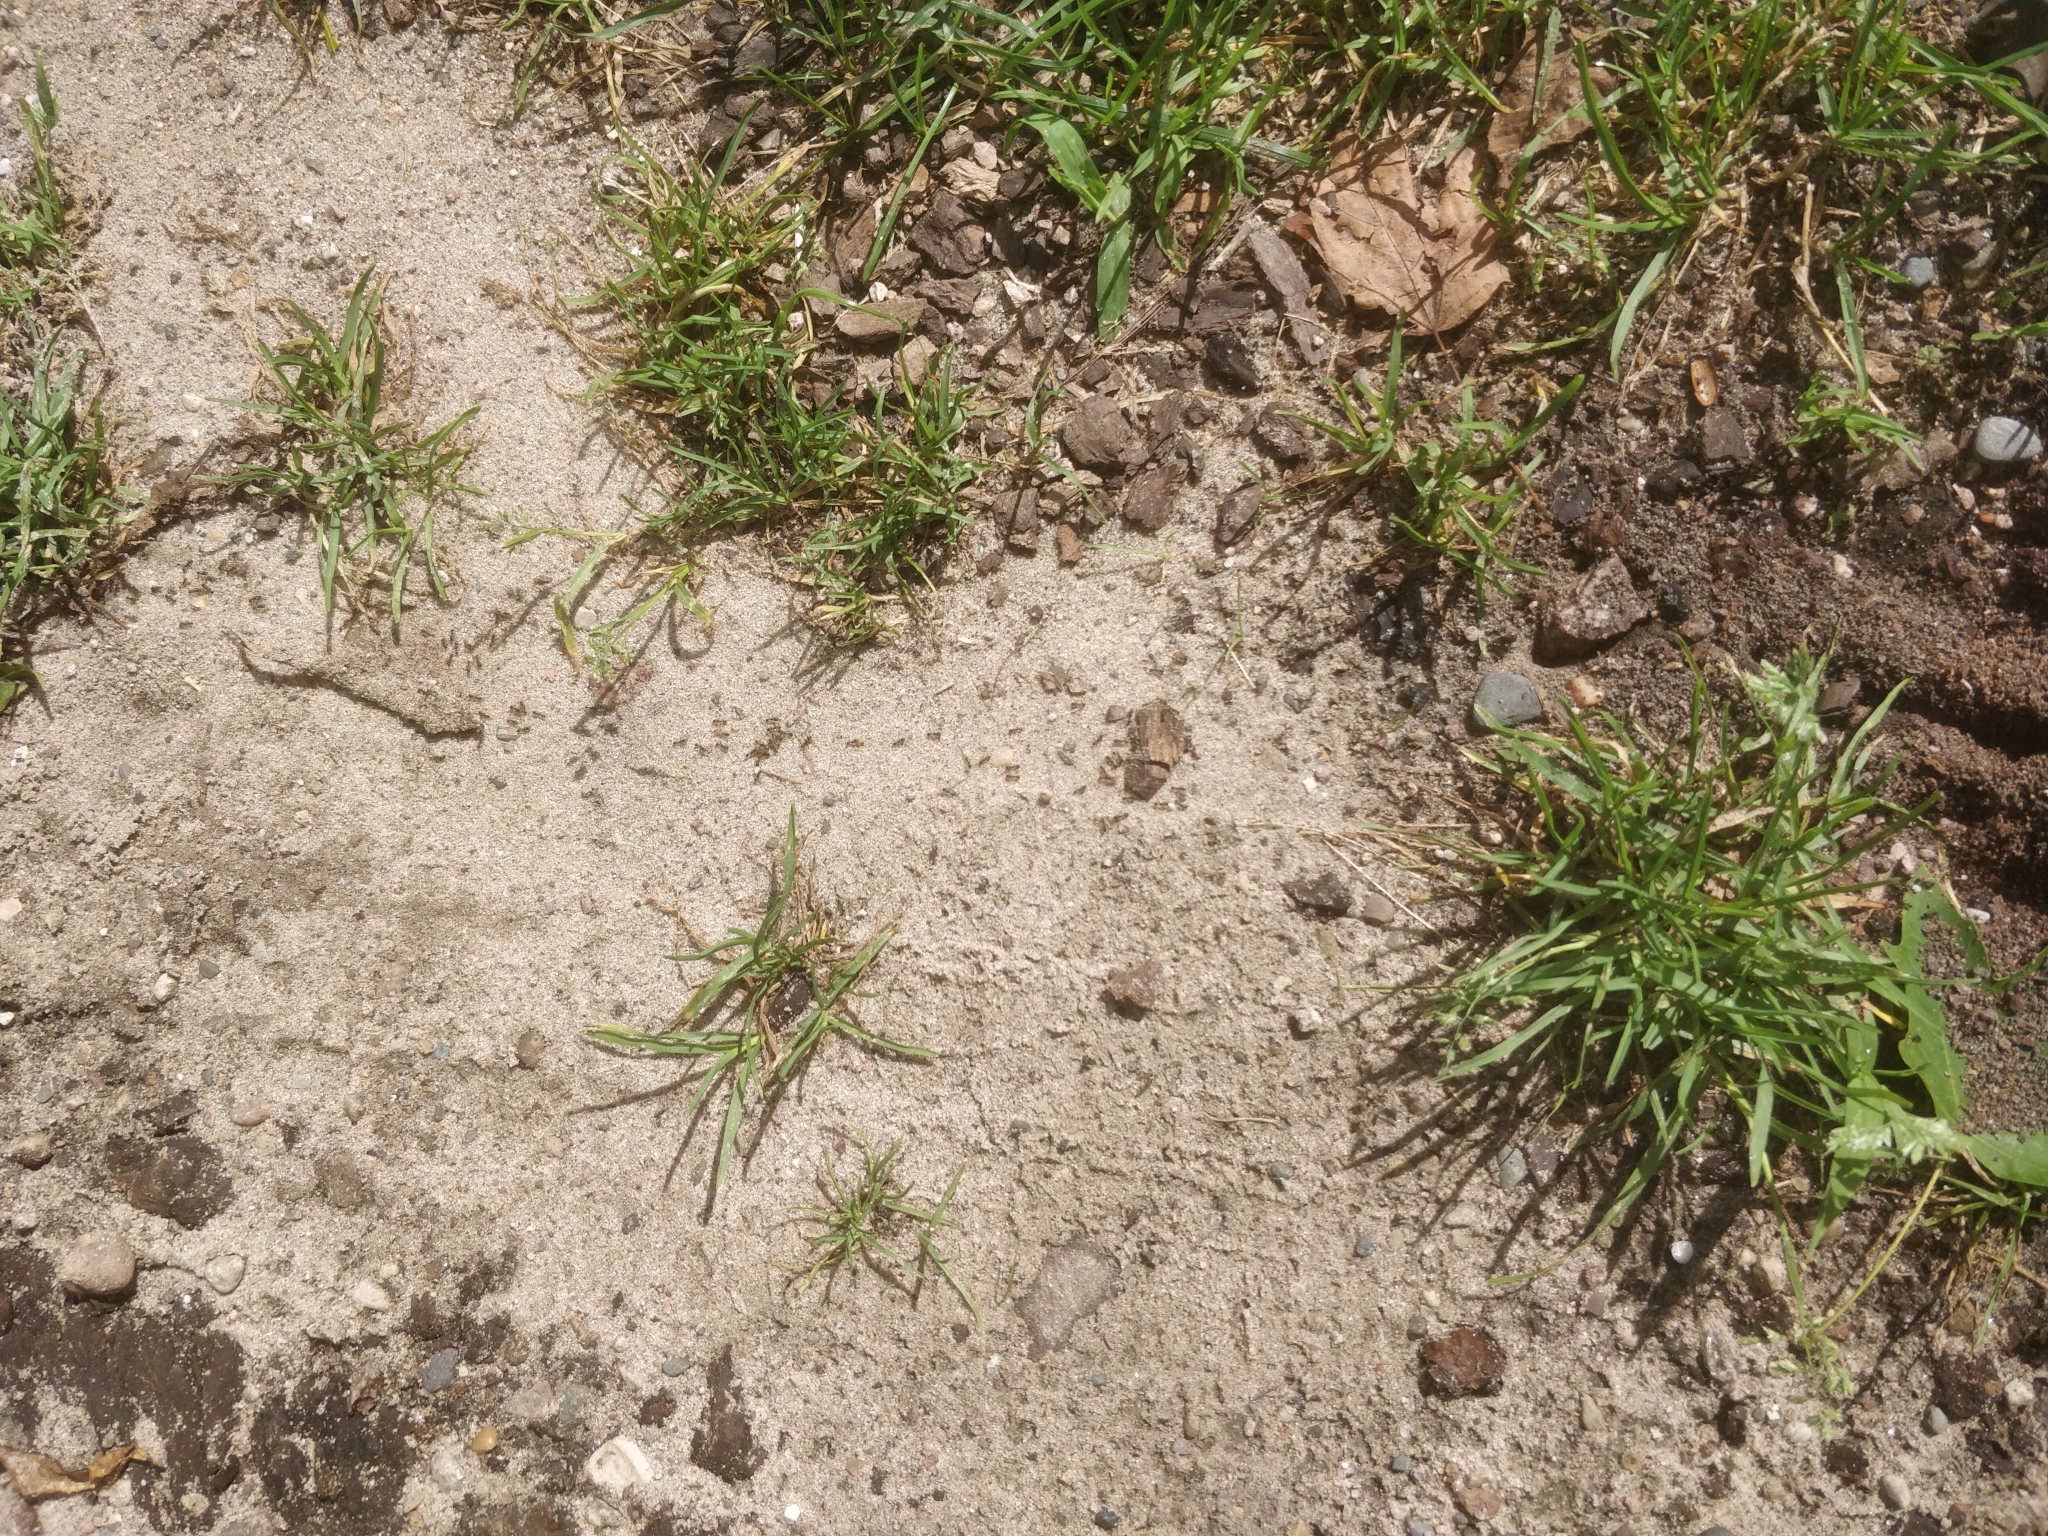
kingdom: Animalia
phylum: Arthropoda
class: Insecta
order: Hymenoptera
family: Formicidae
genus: Tetramorium
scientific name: Tetramorium immigrans
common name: Pavement ant
